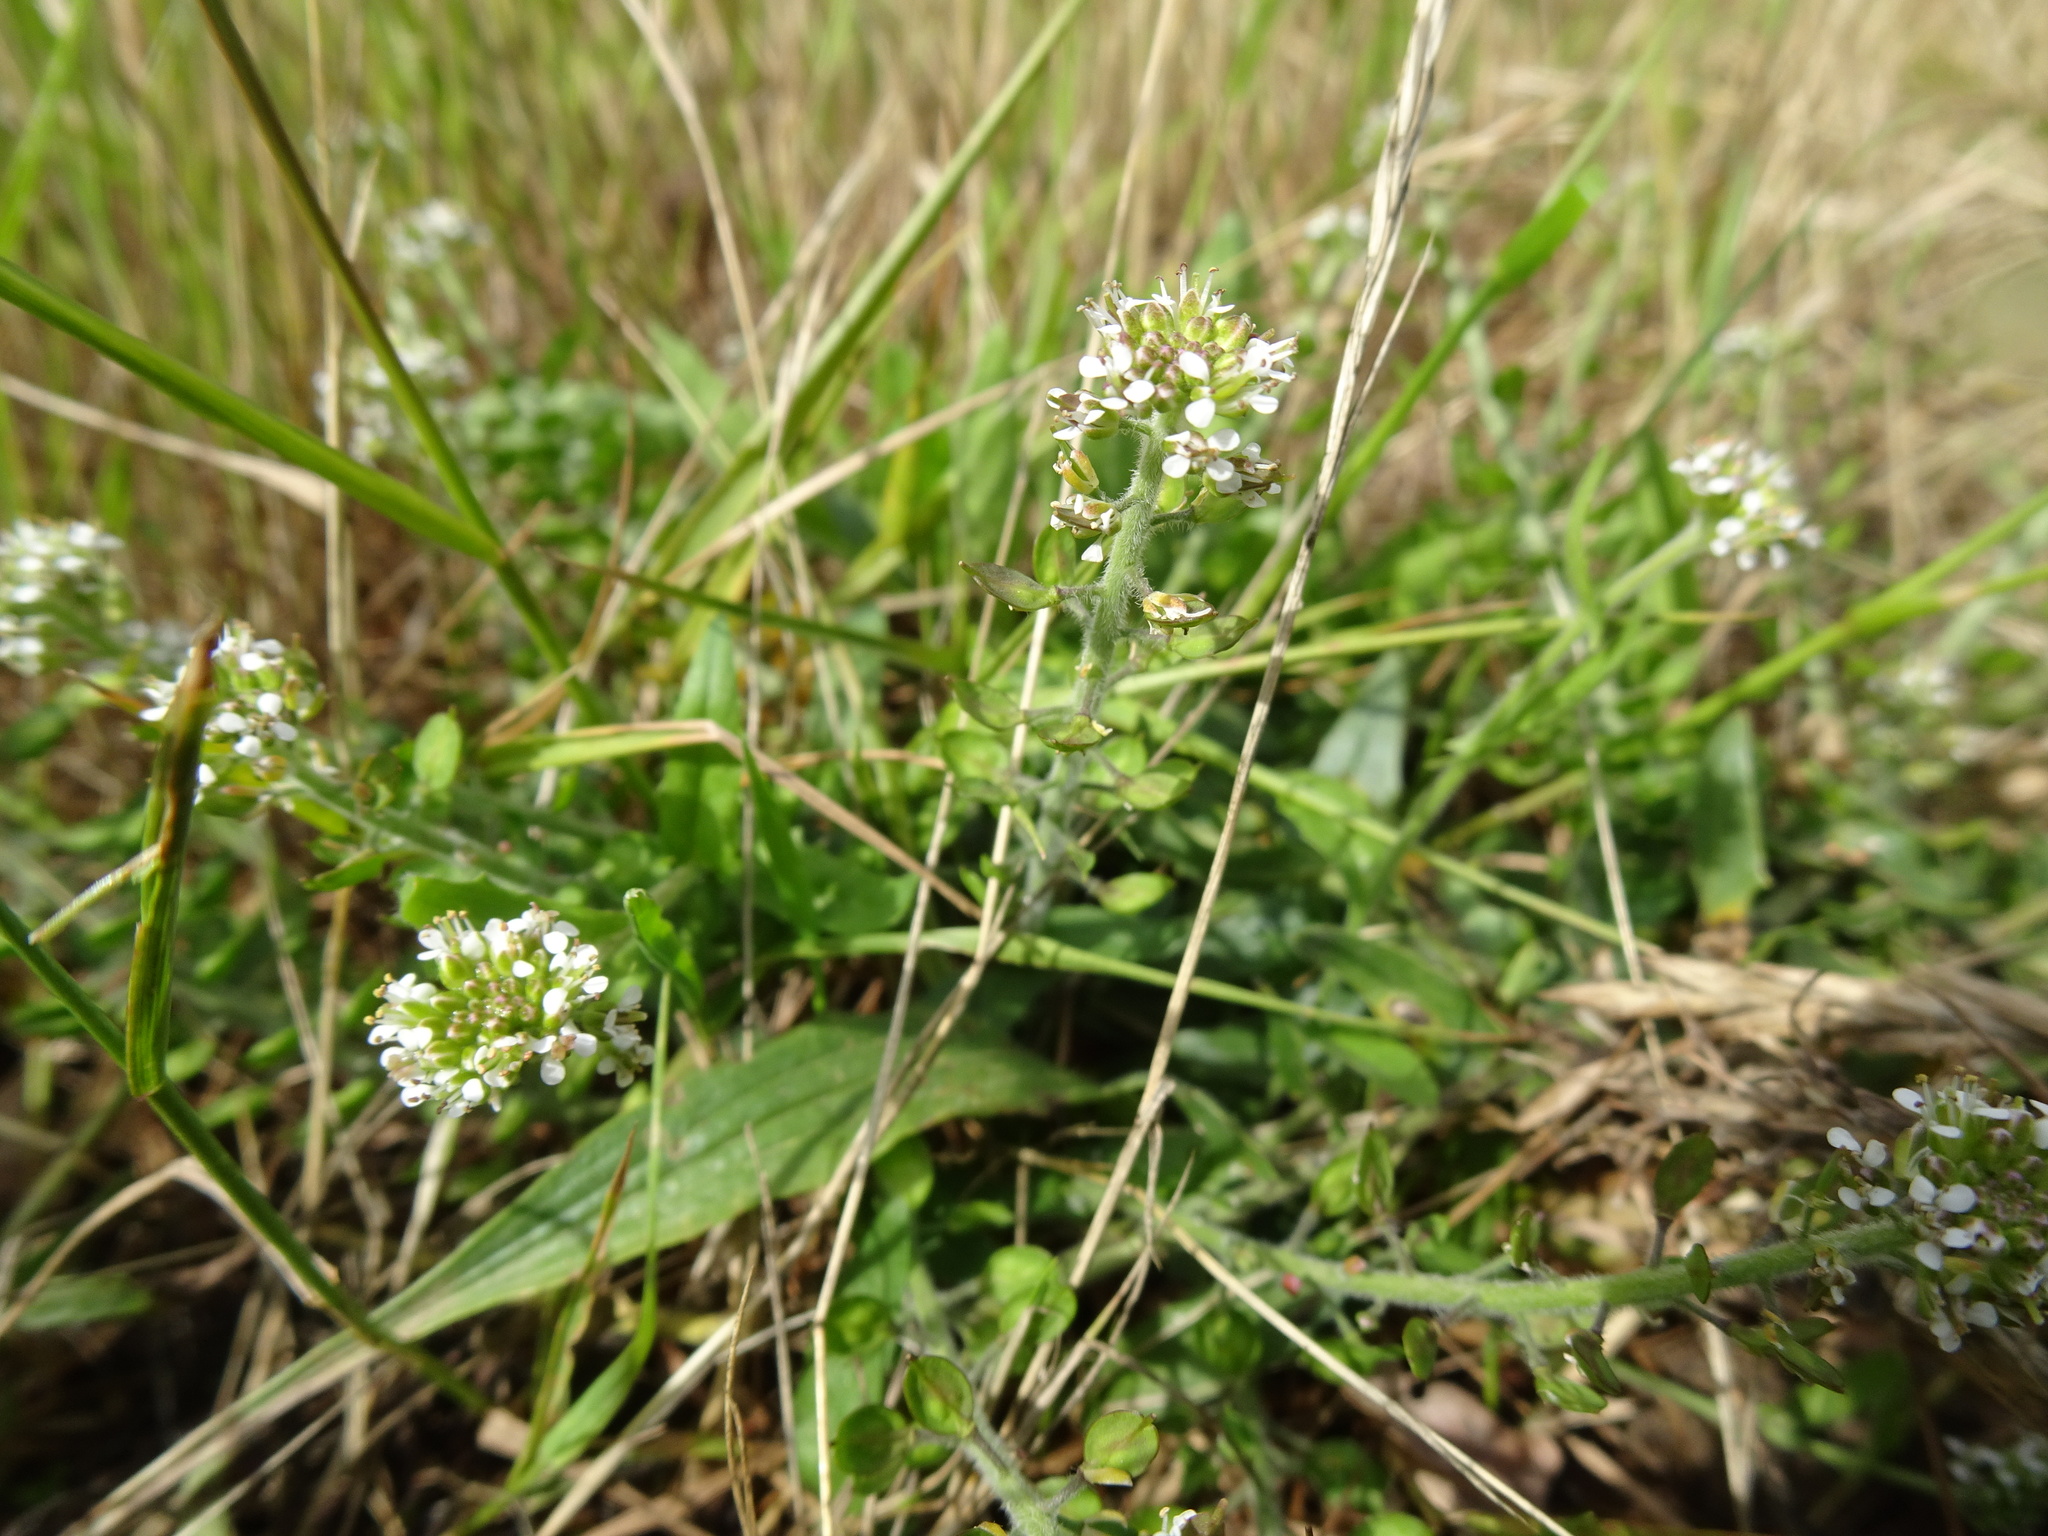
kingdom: Plantae
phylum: Tracheophyta
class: Magnoliopsida
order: Brassicales
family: Brassicaceae
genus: Lepidium
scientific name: Lepidium campestre
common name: Field pepperwort
